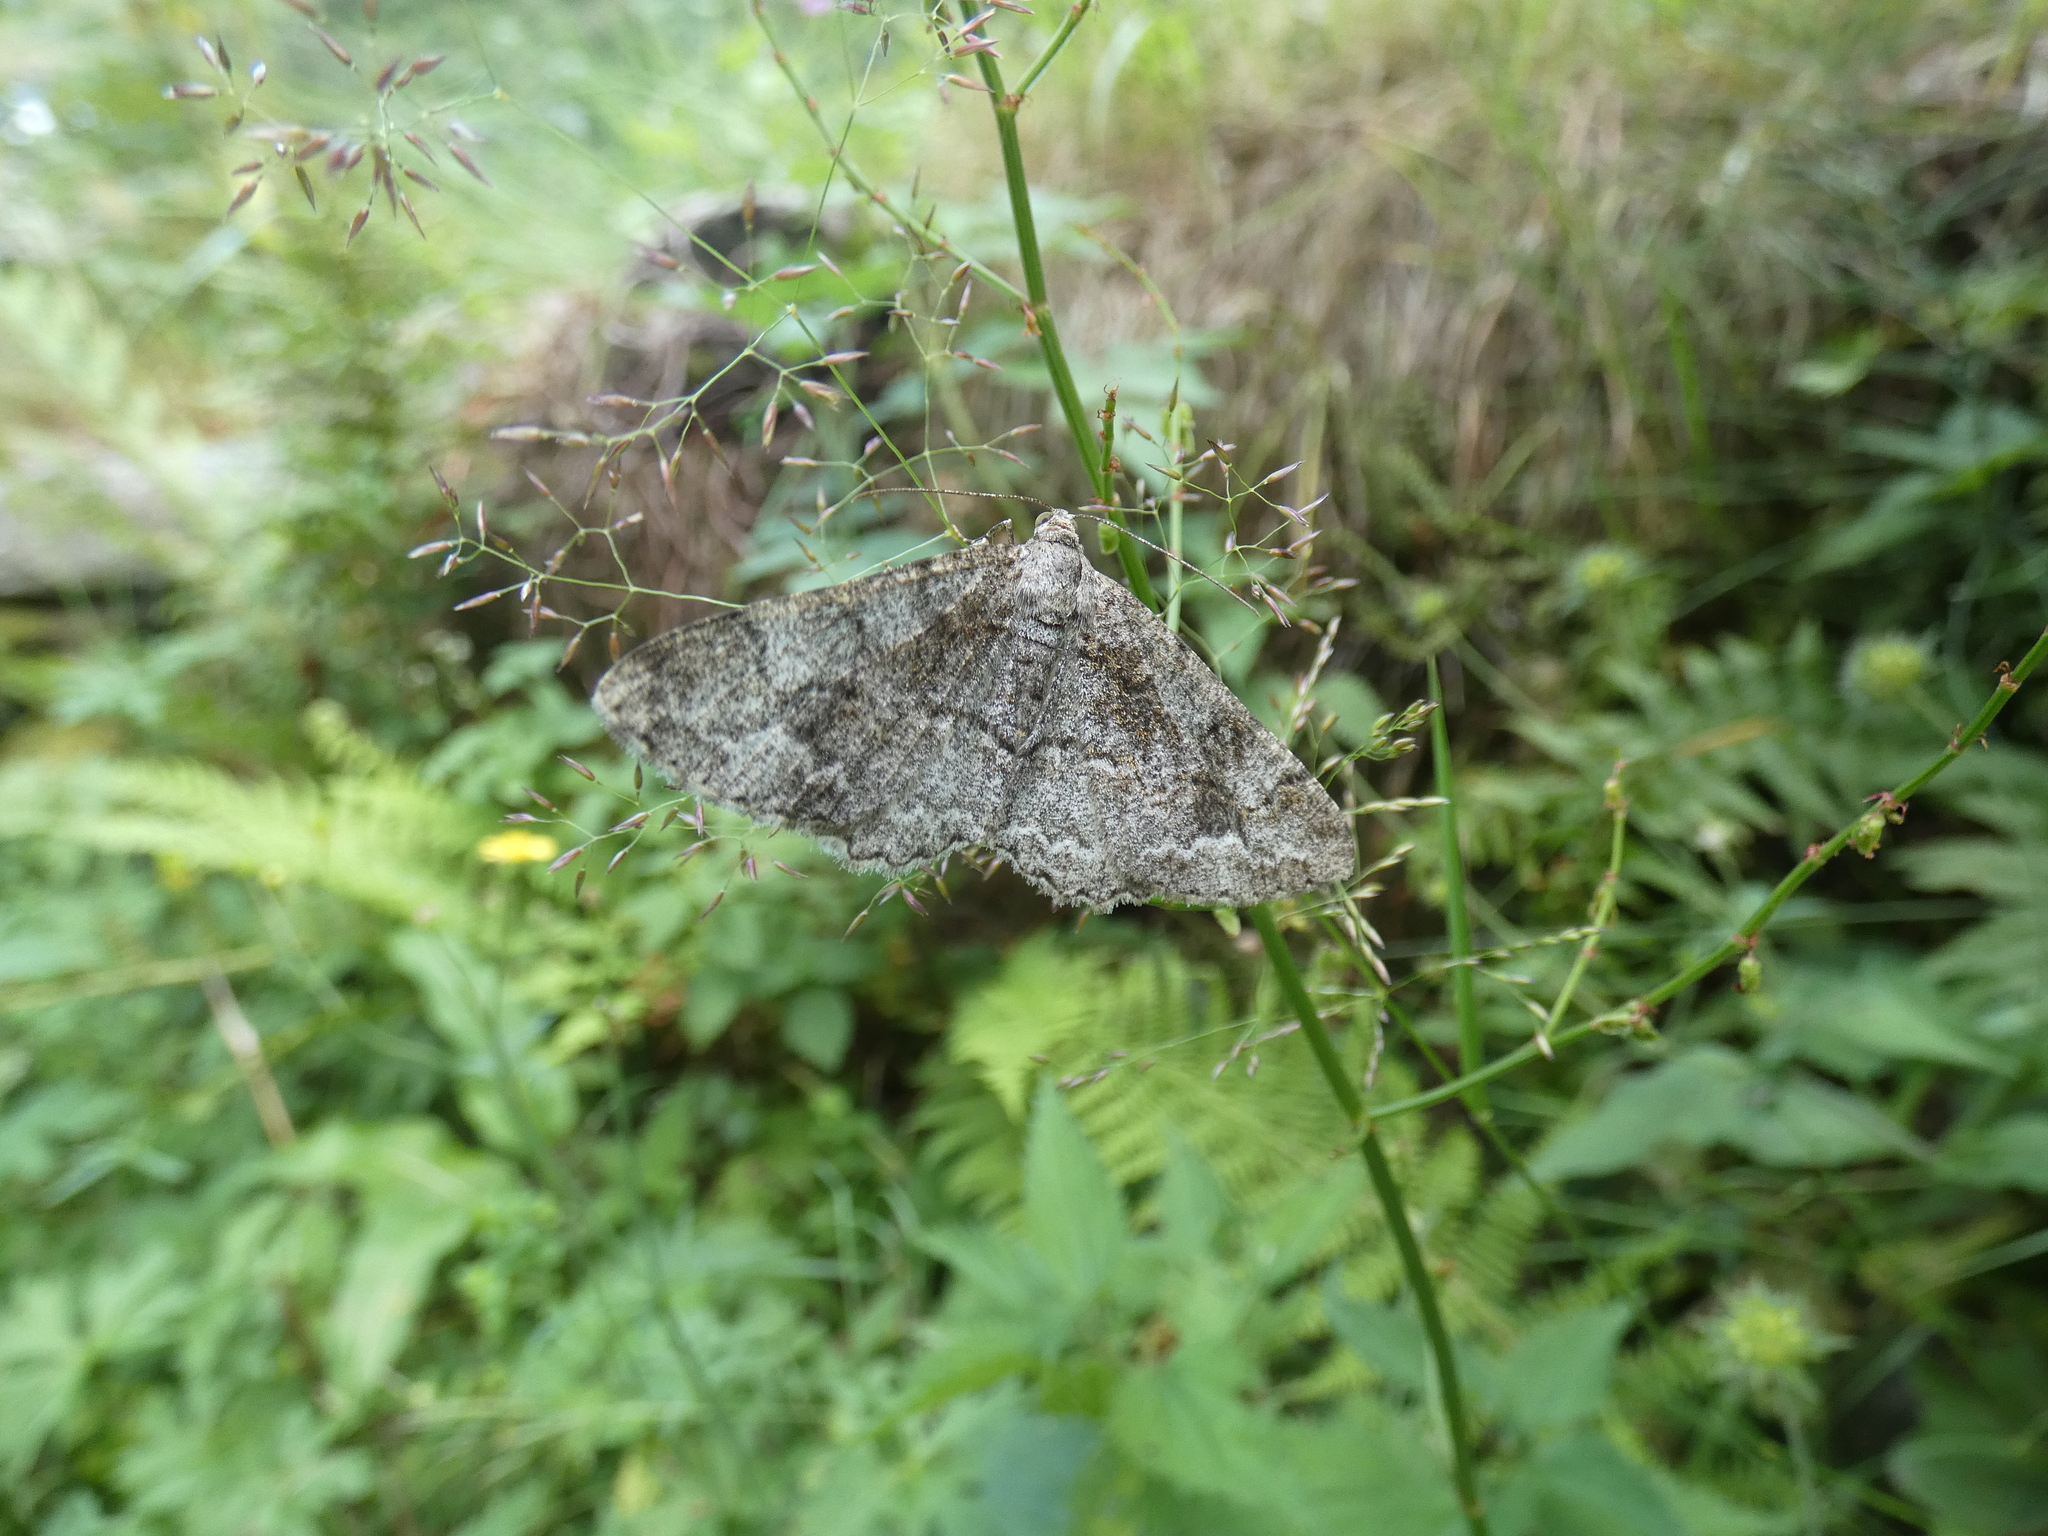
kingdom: Animalia
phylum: Arthropoda
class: Insecta
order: Lepidoptera
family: Geometridae
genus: Alcis
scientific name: Alcis repandata
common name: Mottled beauty
